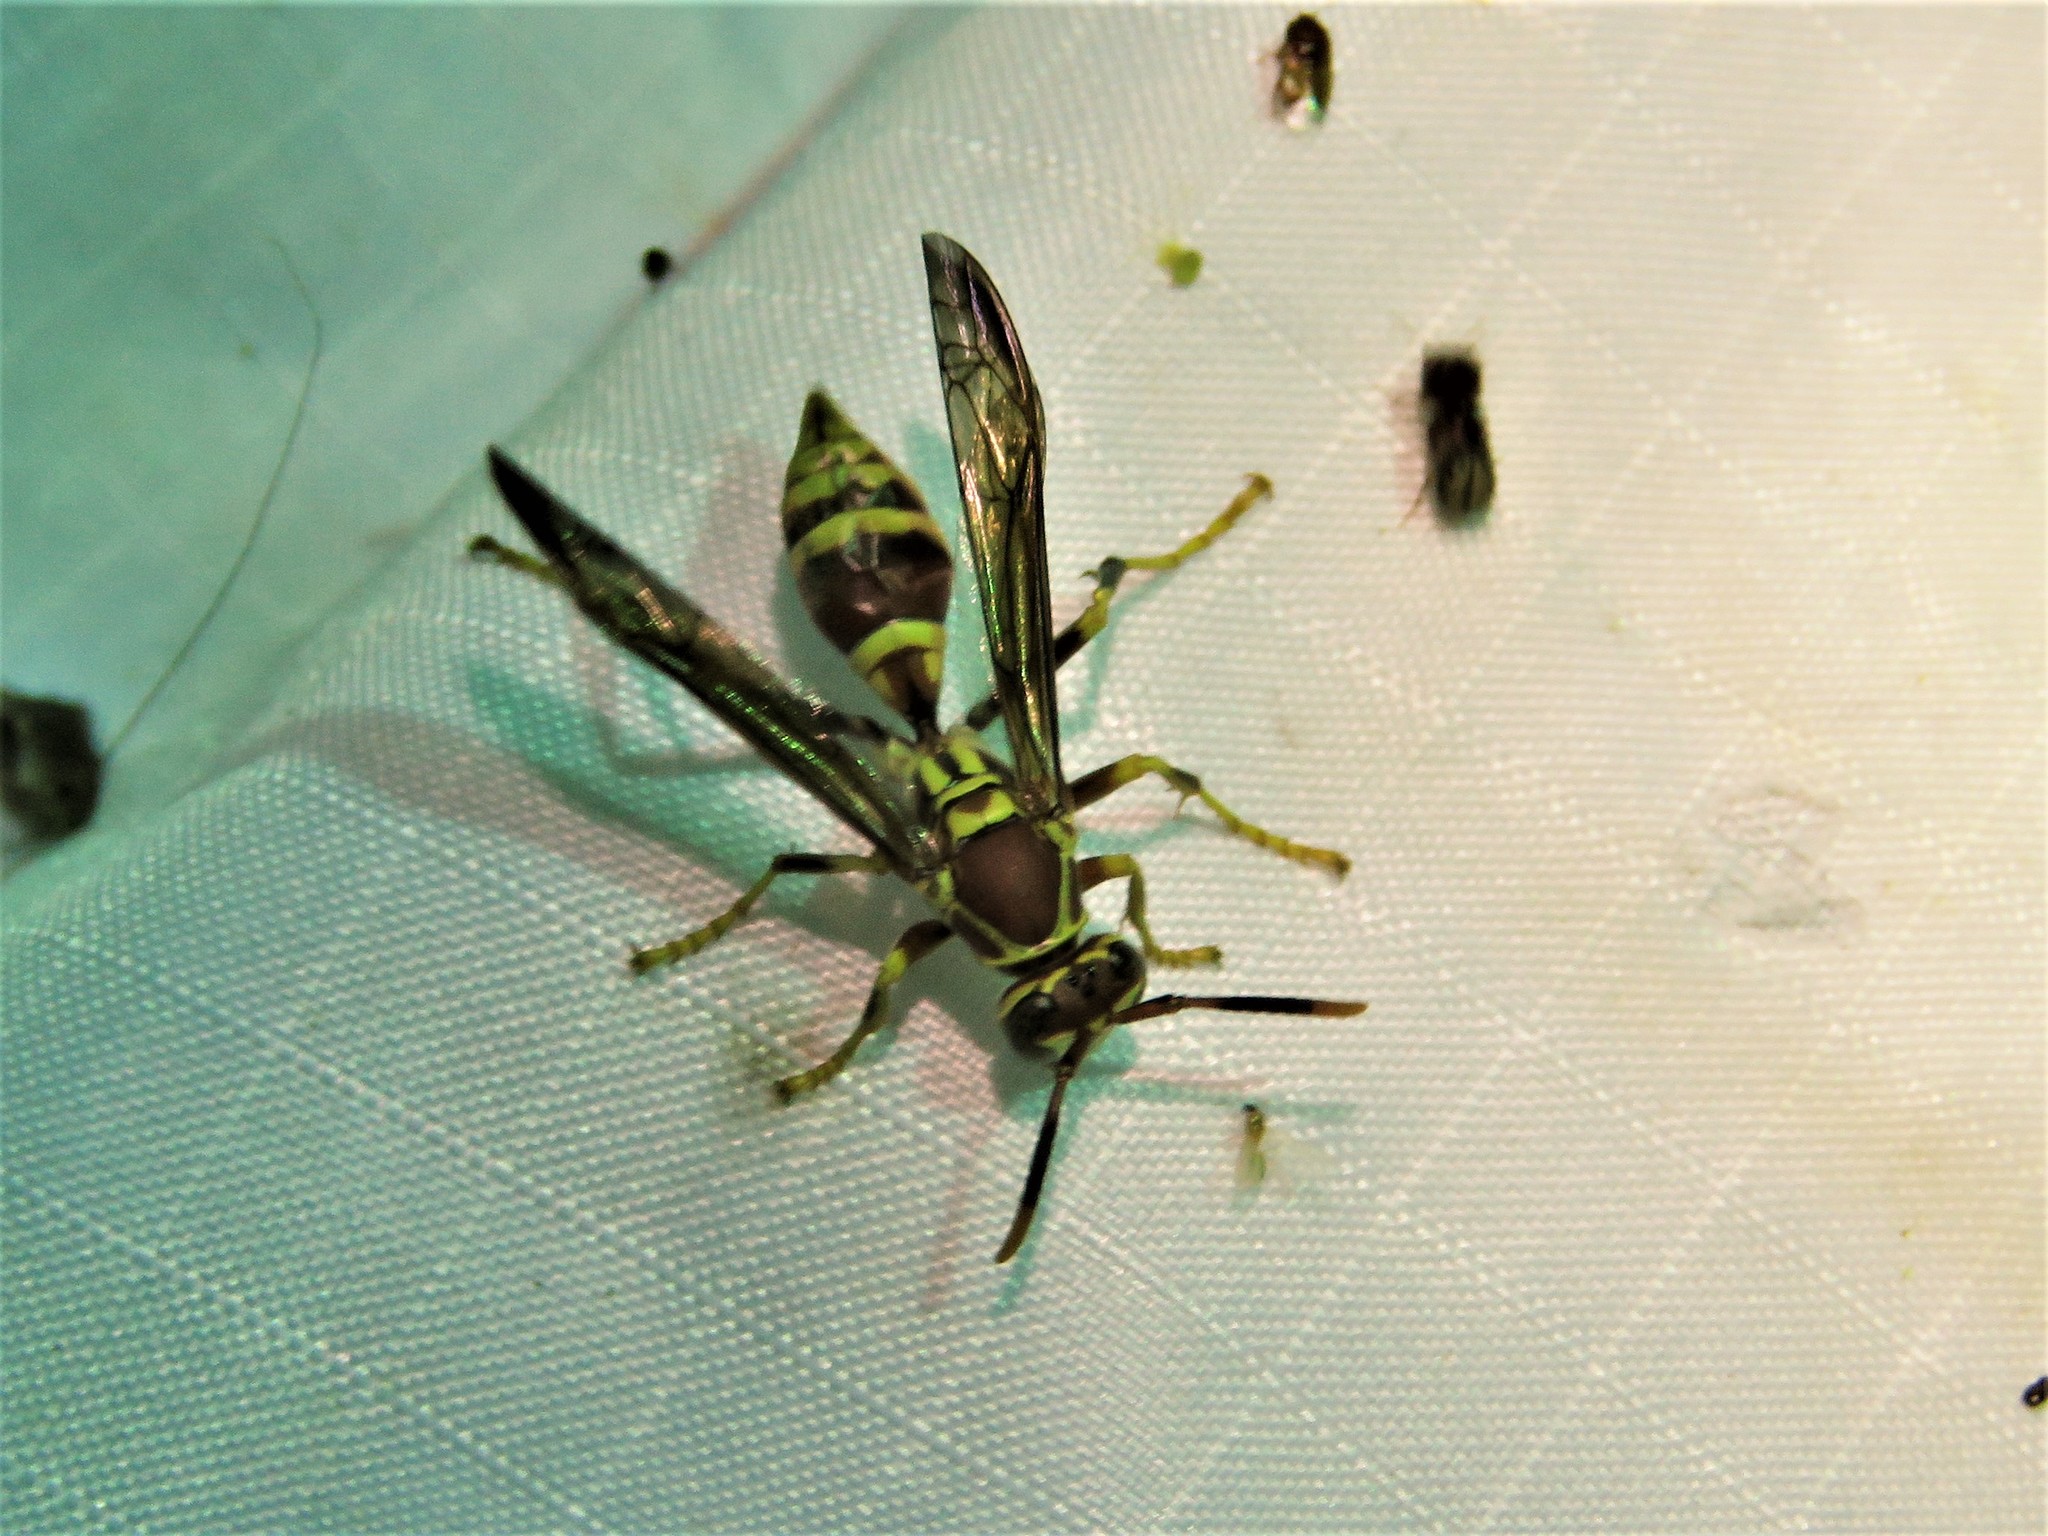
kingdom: Animalia
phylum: Arthropoda
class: Insecta
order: Hymenoptera
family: Eumenidae
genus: Polistes
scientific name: Polistes exclamans
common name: Paper wasp
